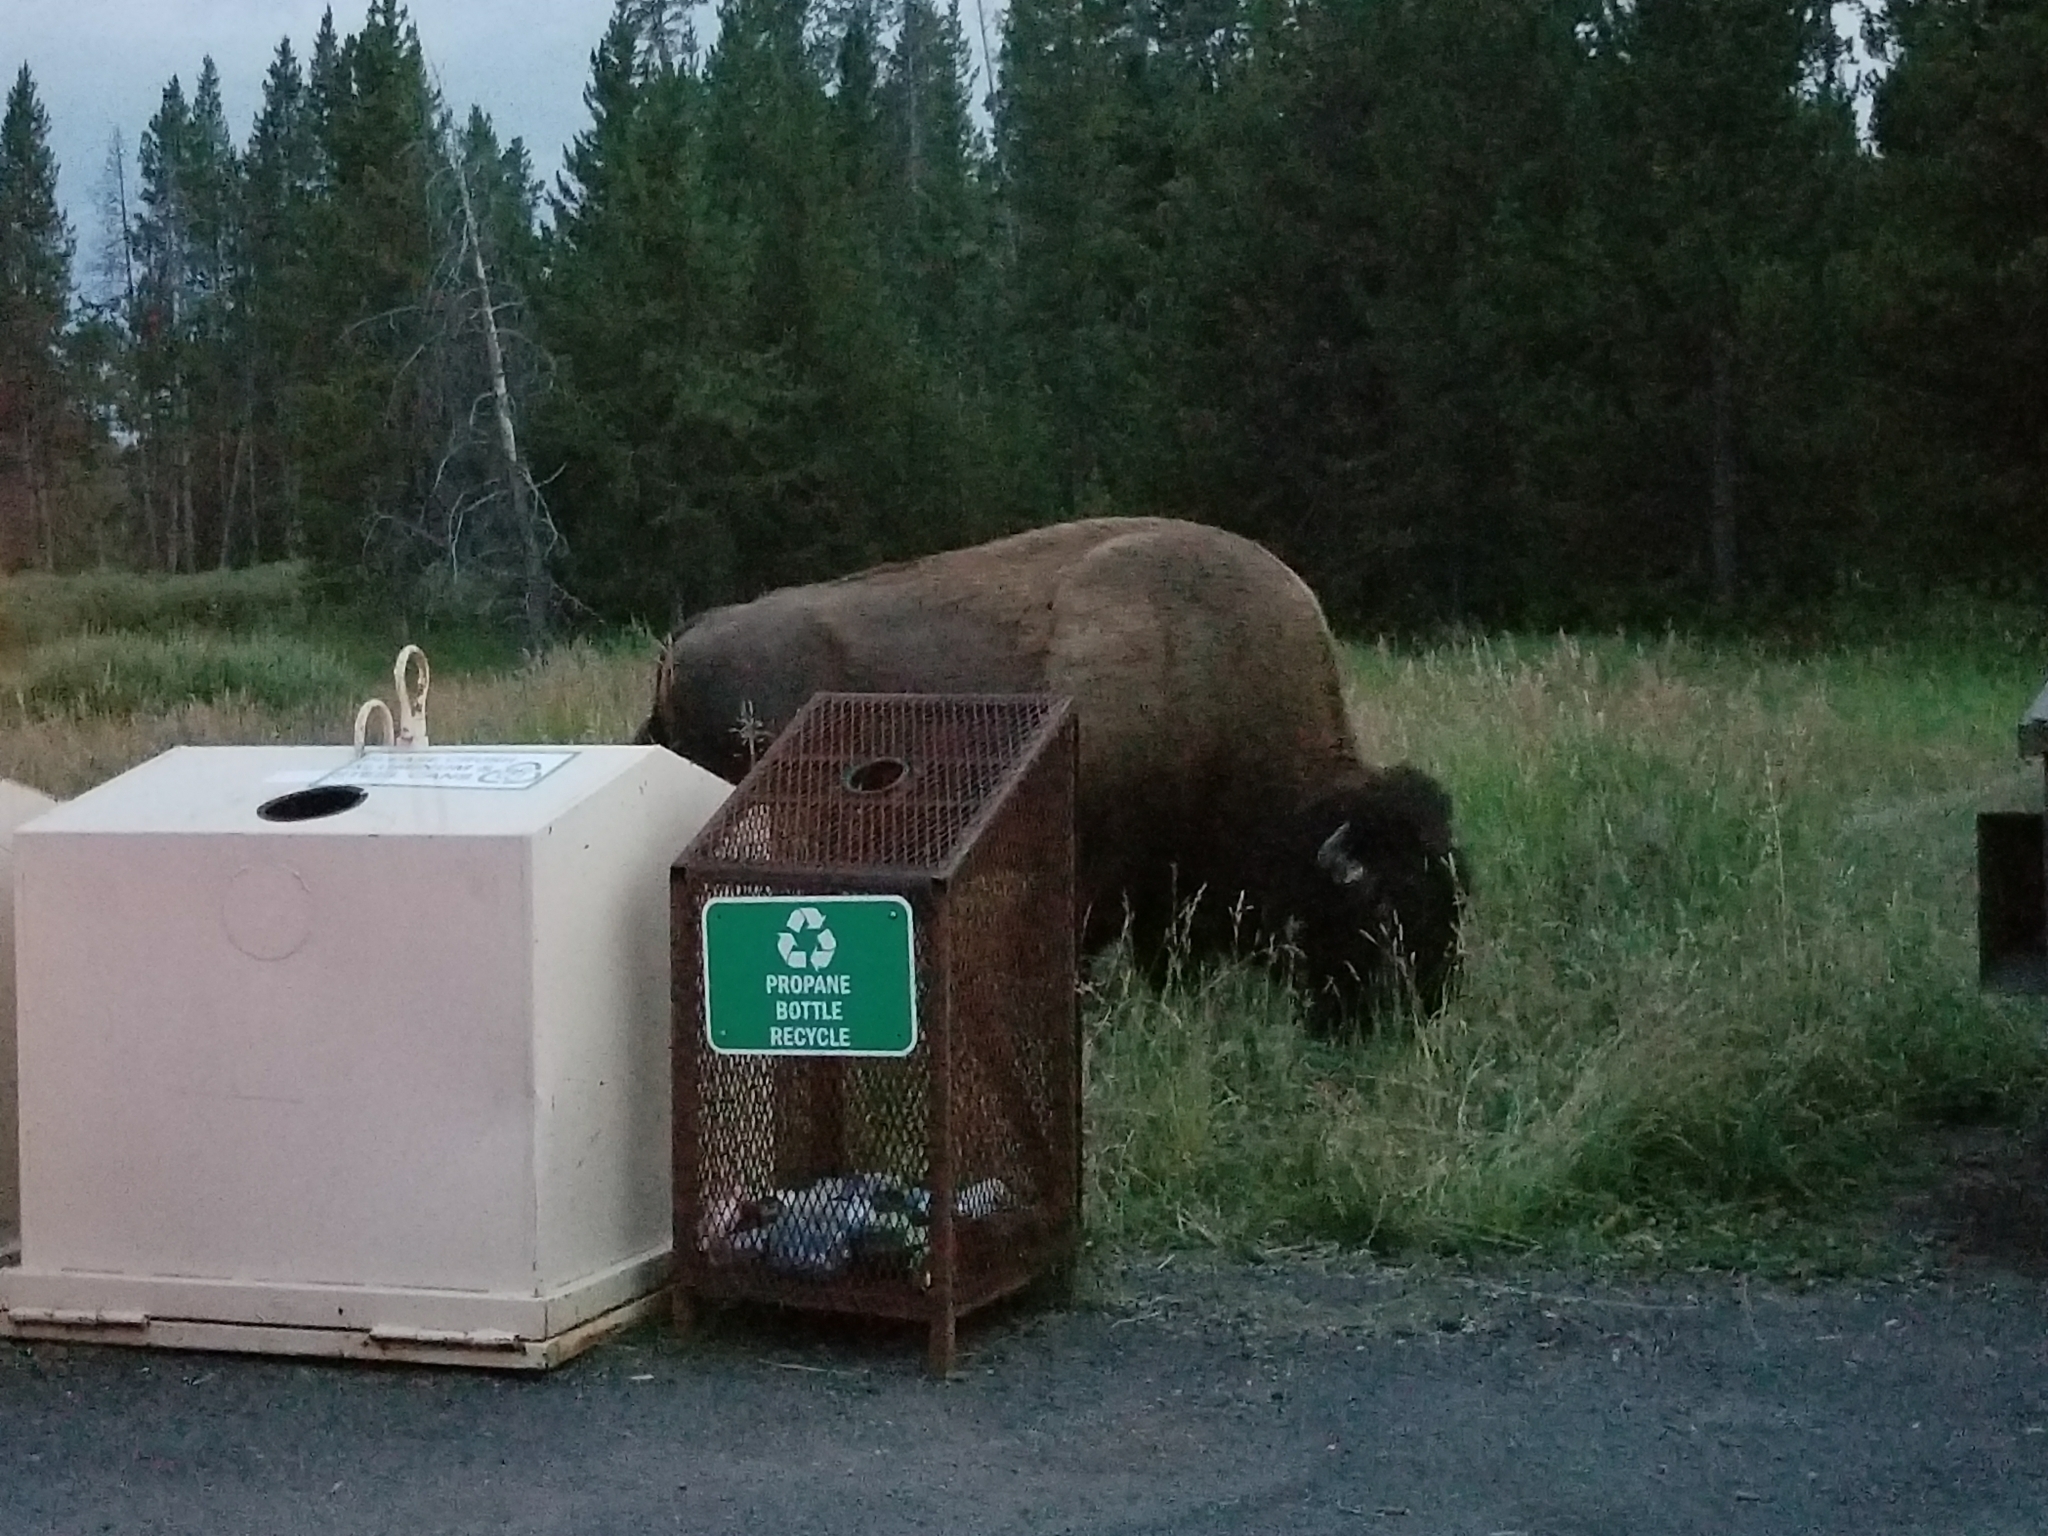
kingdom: Animalia
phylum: Chordata
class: Mammalia
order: Artiodactyla
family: Bovidae
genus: Bison
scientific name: Bison bison
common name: American bison
